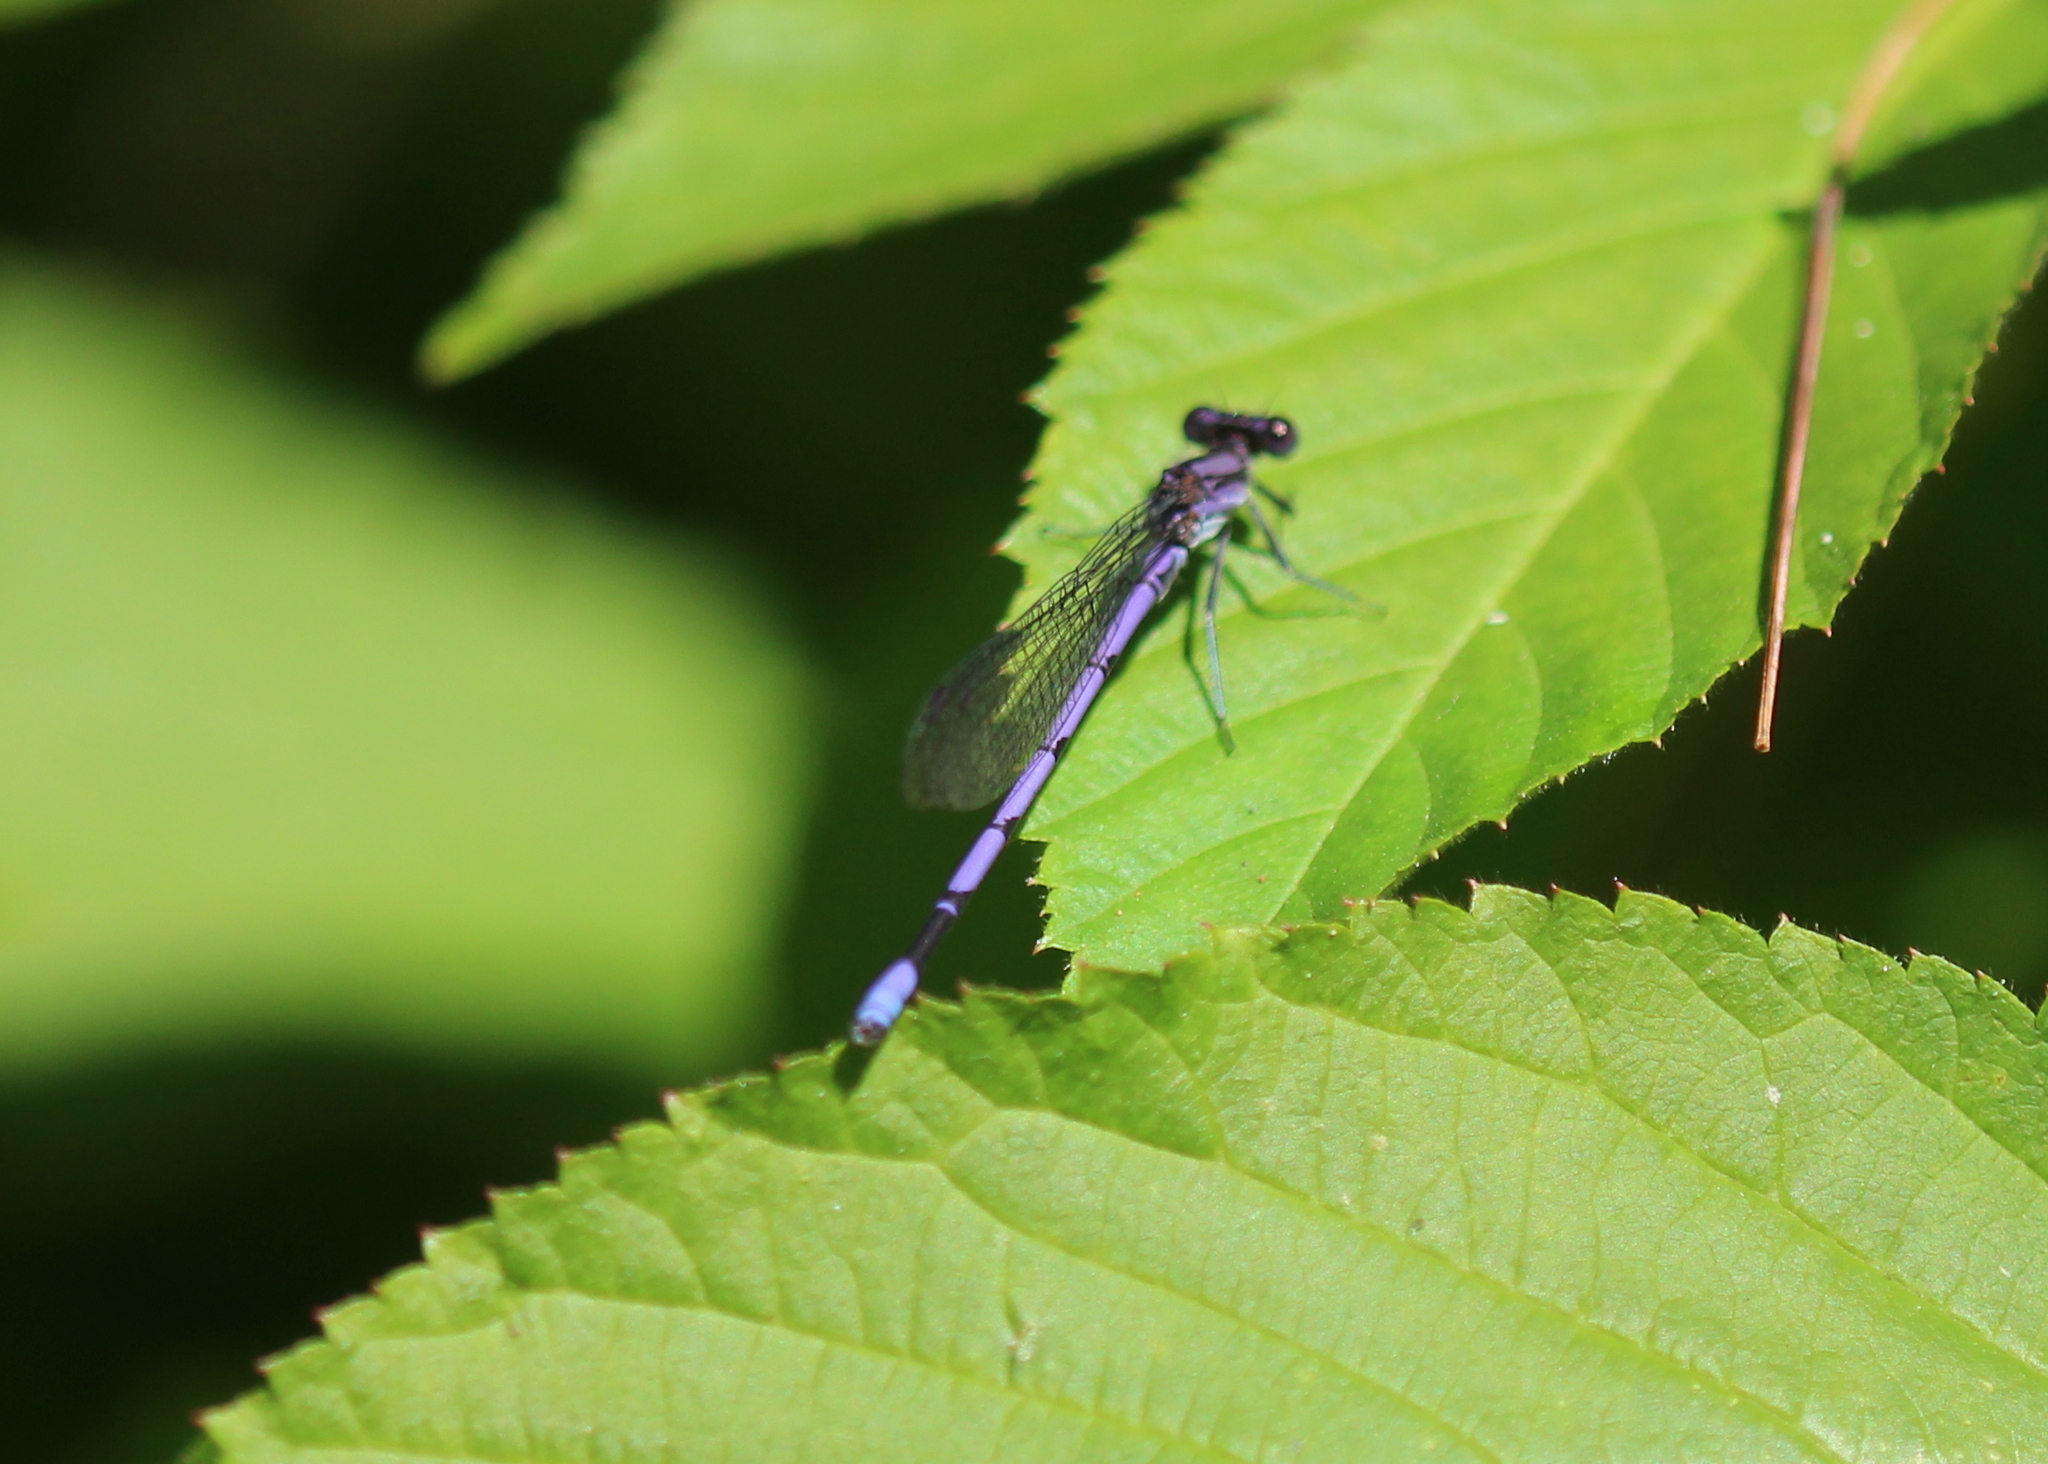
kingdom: Animalia
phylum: Arthropoda
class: Insecta
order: Odonata
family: Coenagrionidae
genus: Argia
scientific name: Argia fumipennis
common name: Variable dancer
